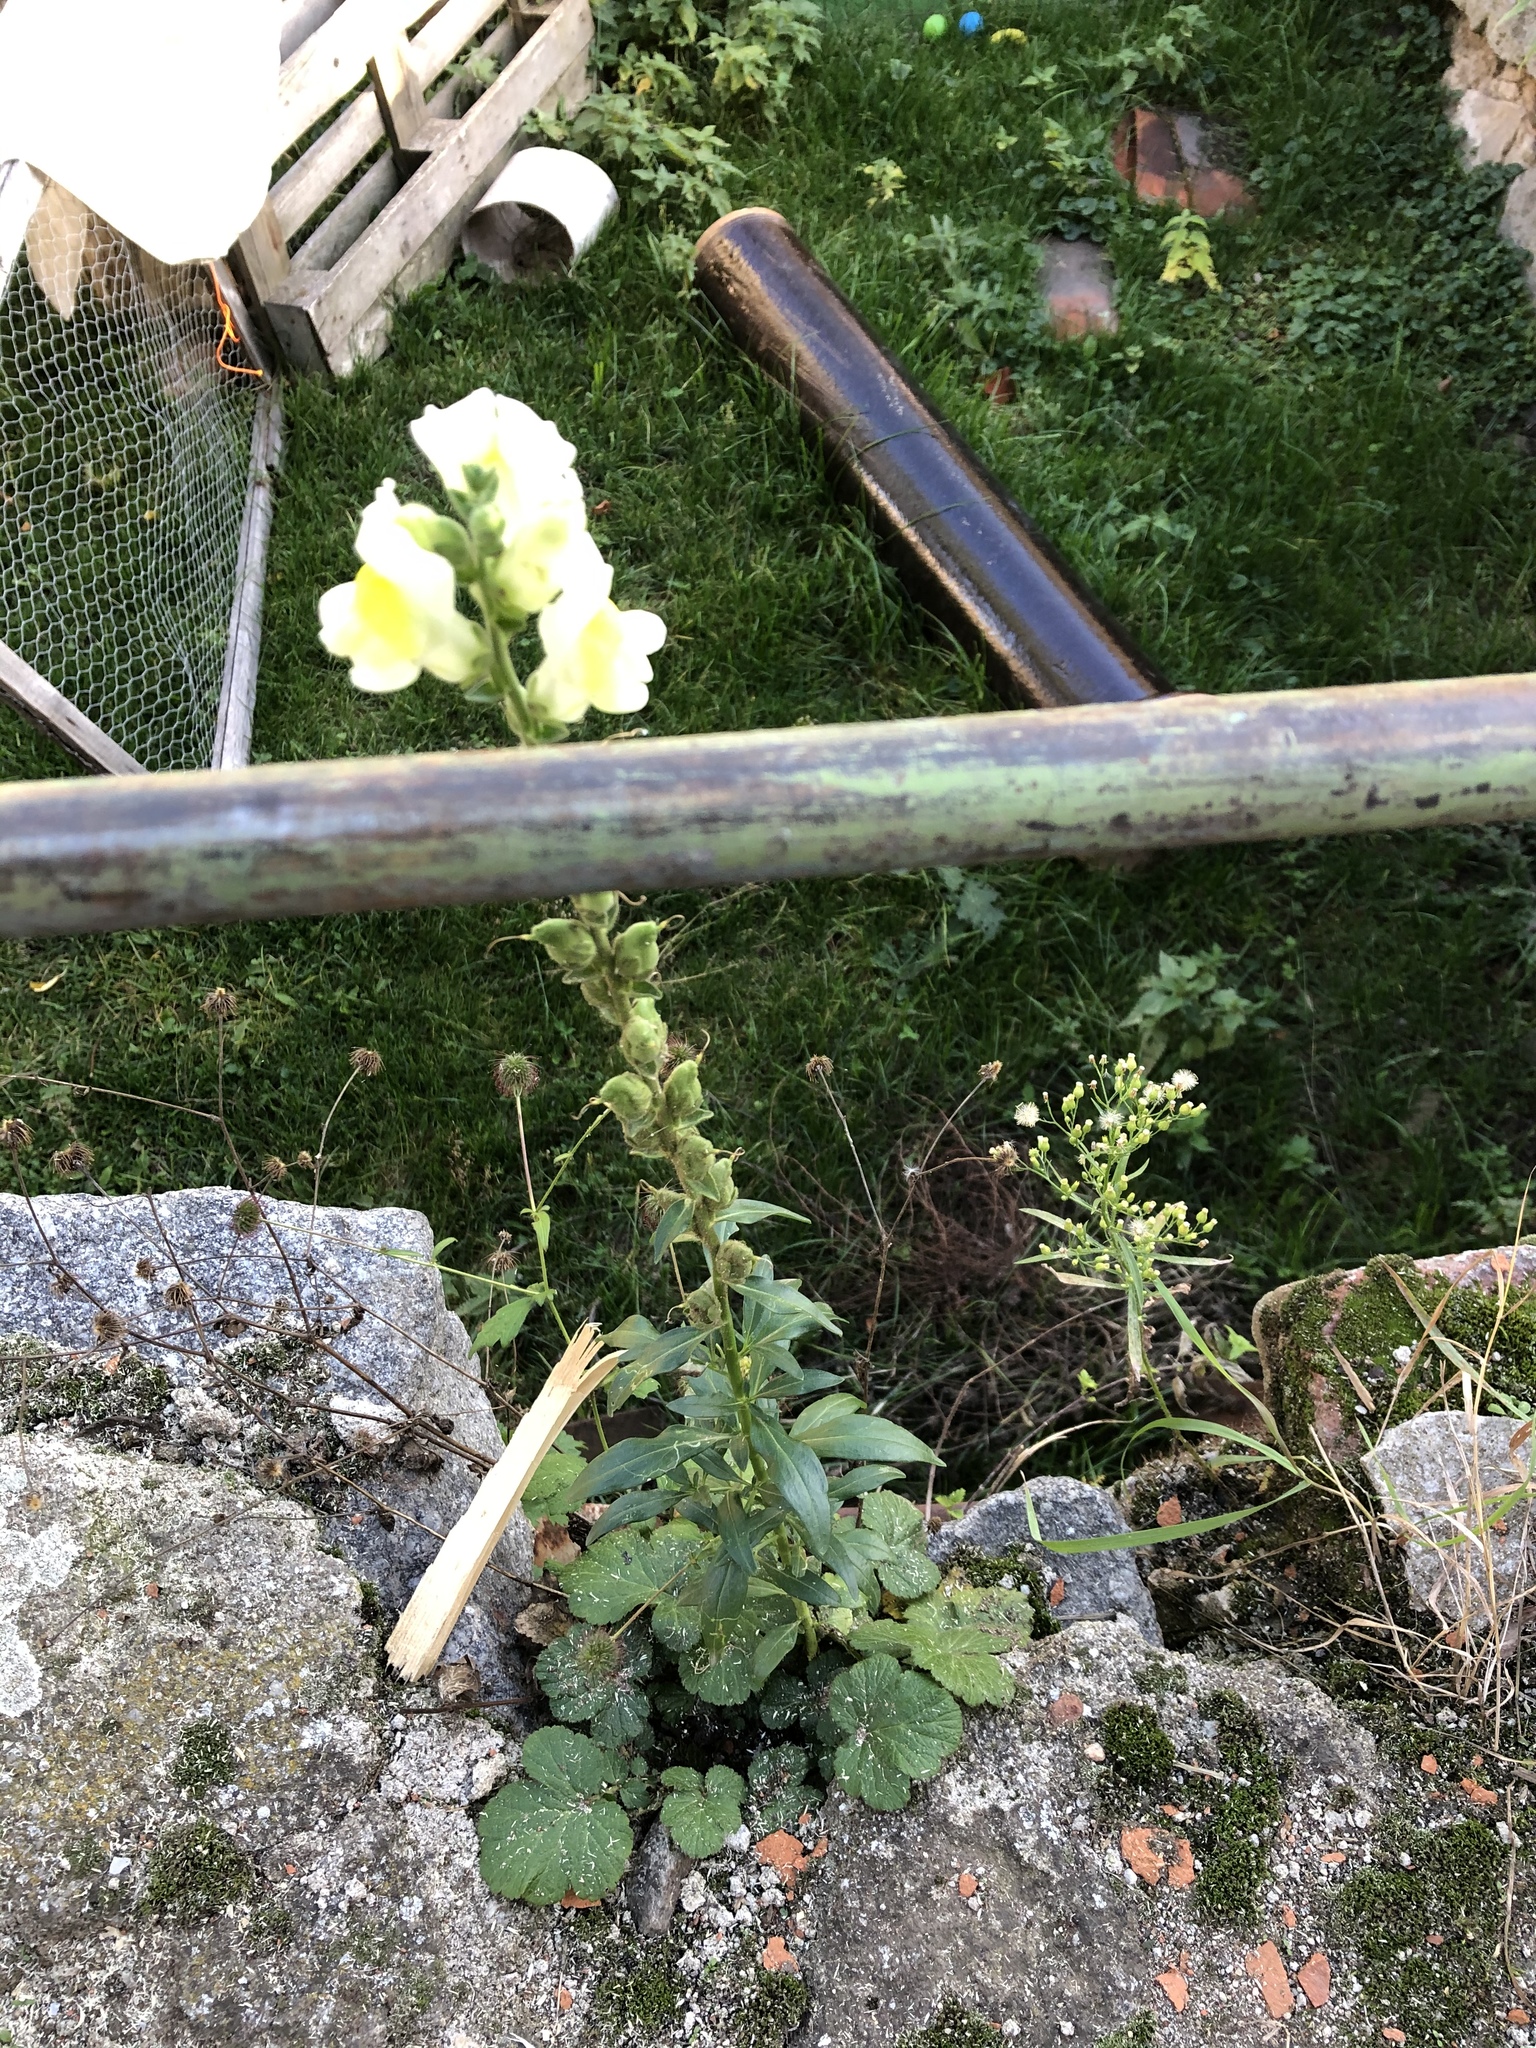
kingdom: Plantae
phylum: Tracheophyta
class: Magnoliopsida
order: Lamiales
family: Plantaginaceae
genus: Antirrhinum
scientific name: Antirrhinum majus
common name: Snapdragon
